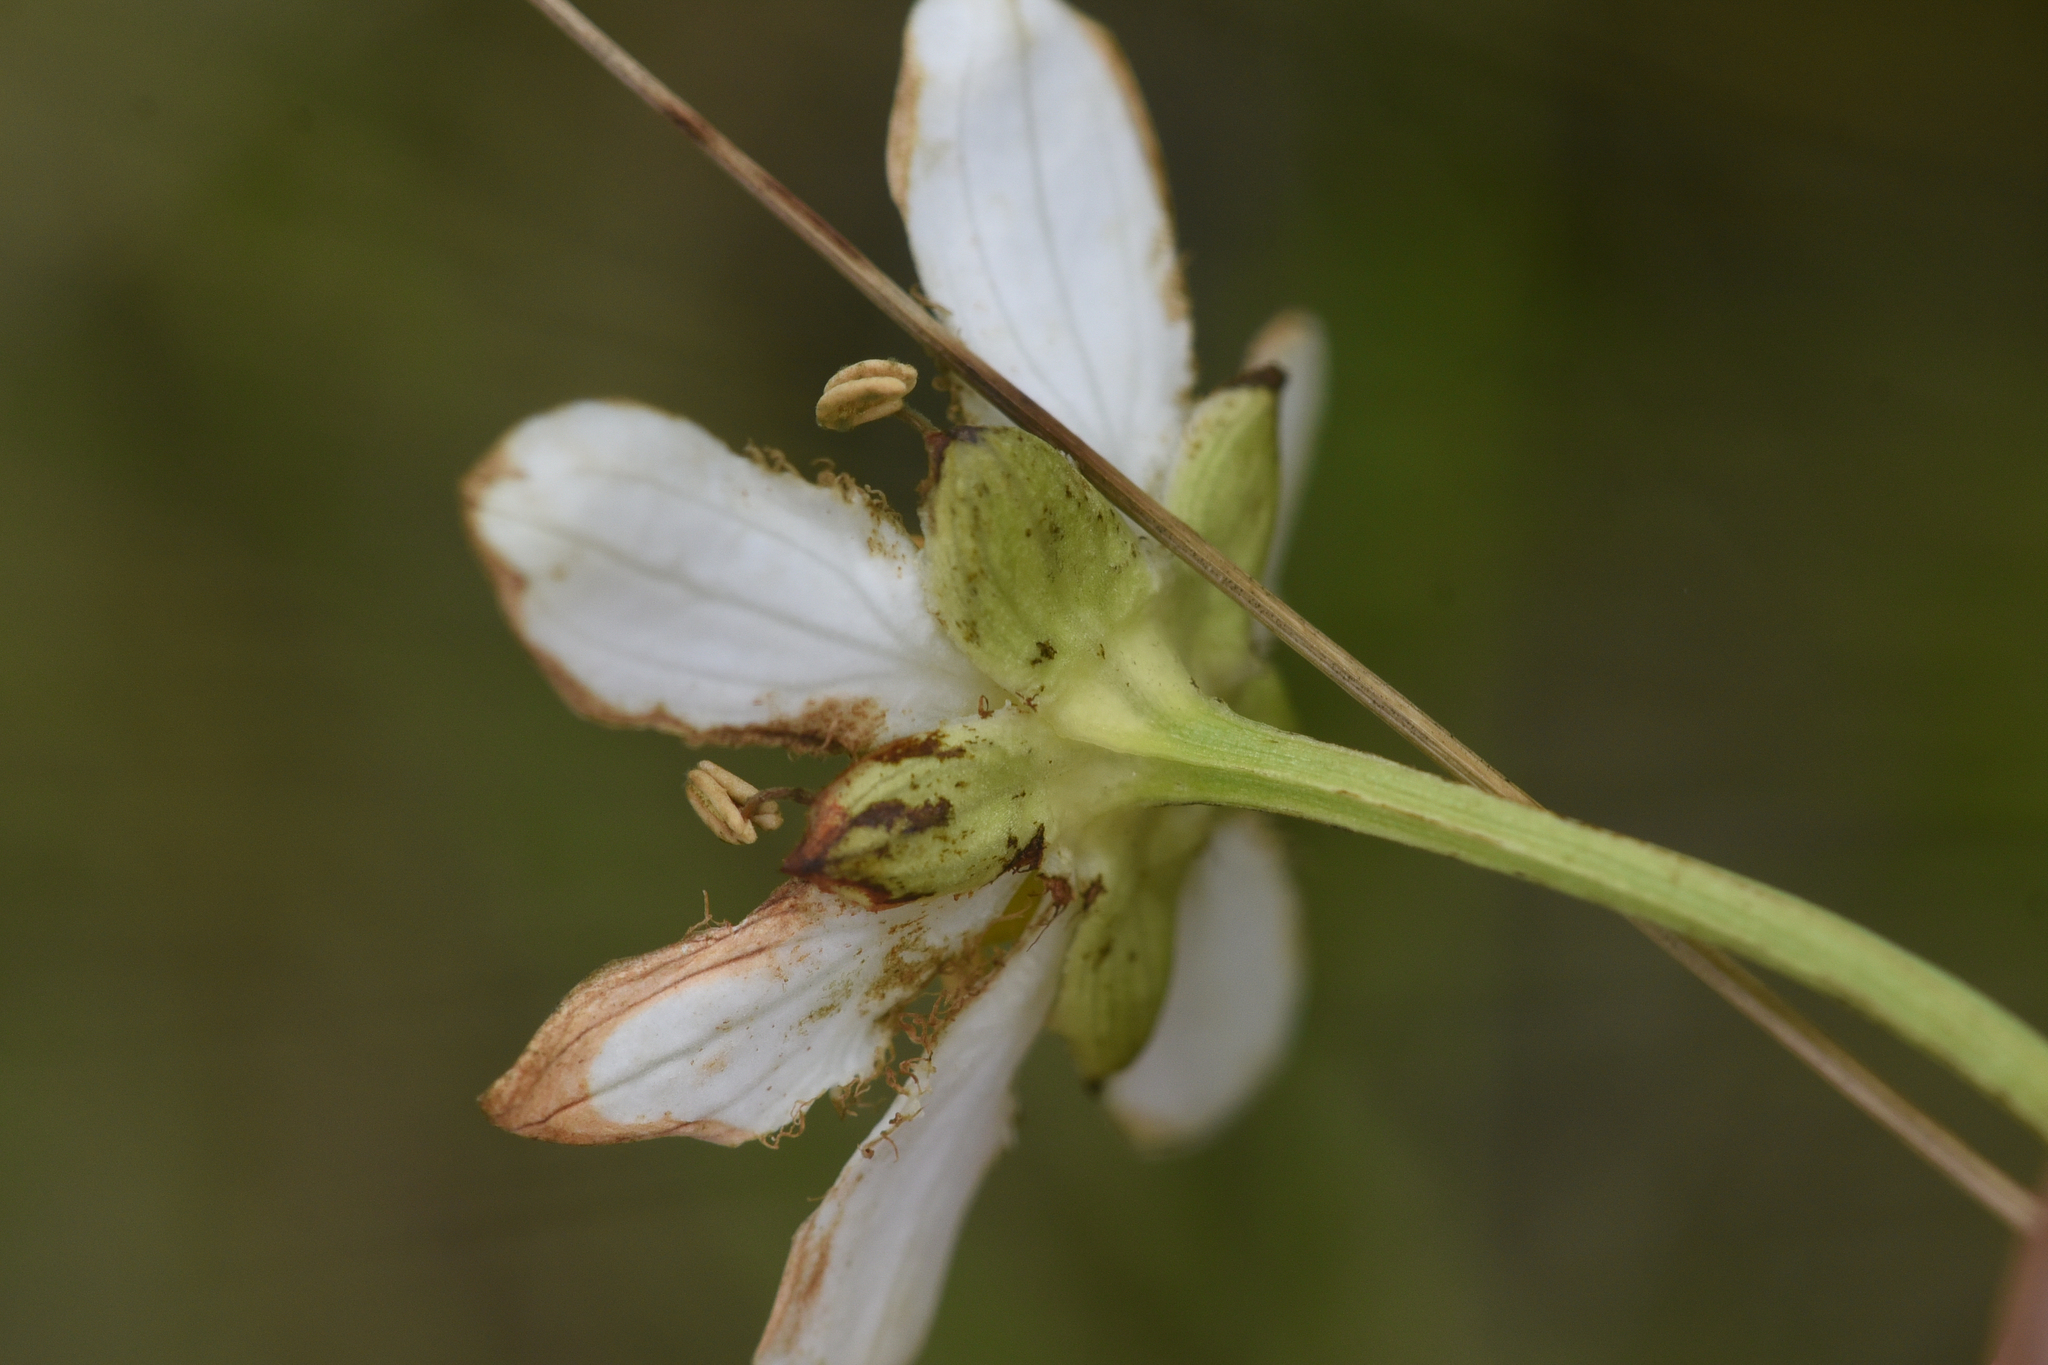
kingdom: Plantae
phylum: Tracheophyta
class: Magnoliopsida
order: Celastrales
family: Parnassiaceae
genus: Parnassia
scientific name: Parnassia fimbriata
